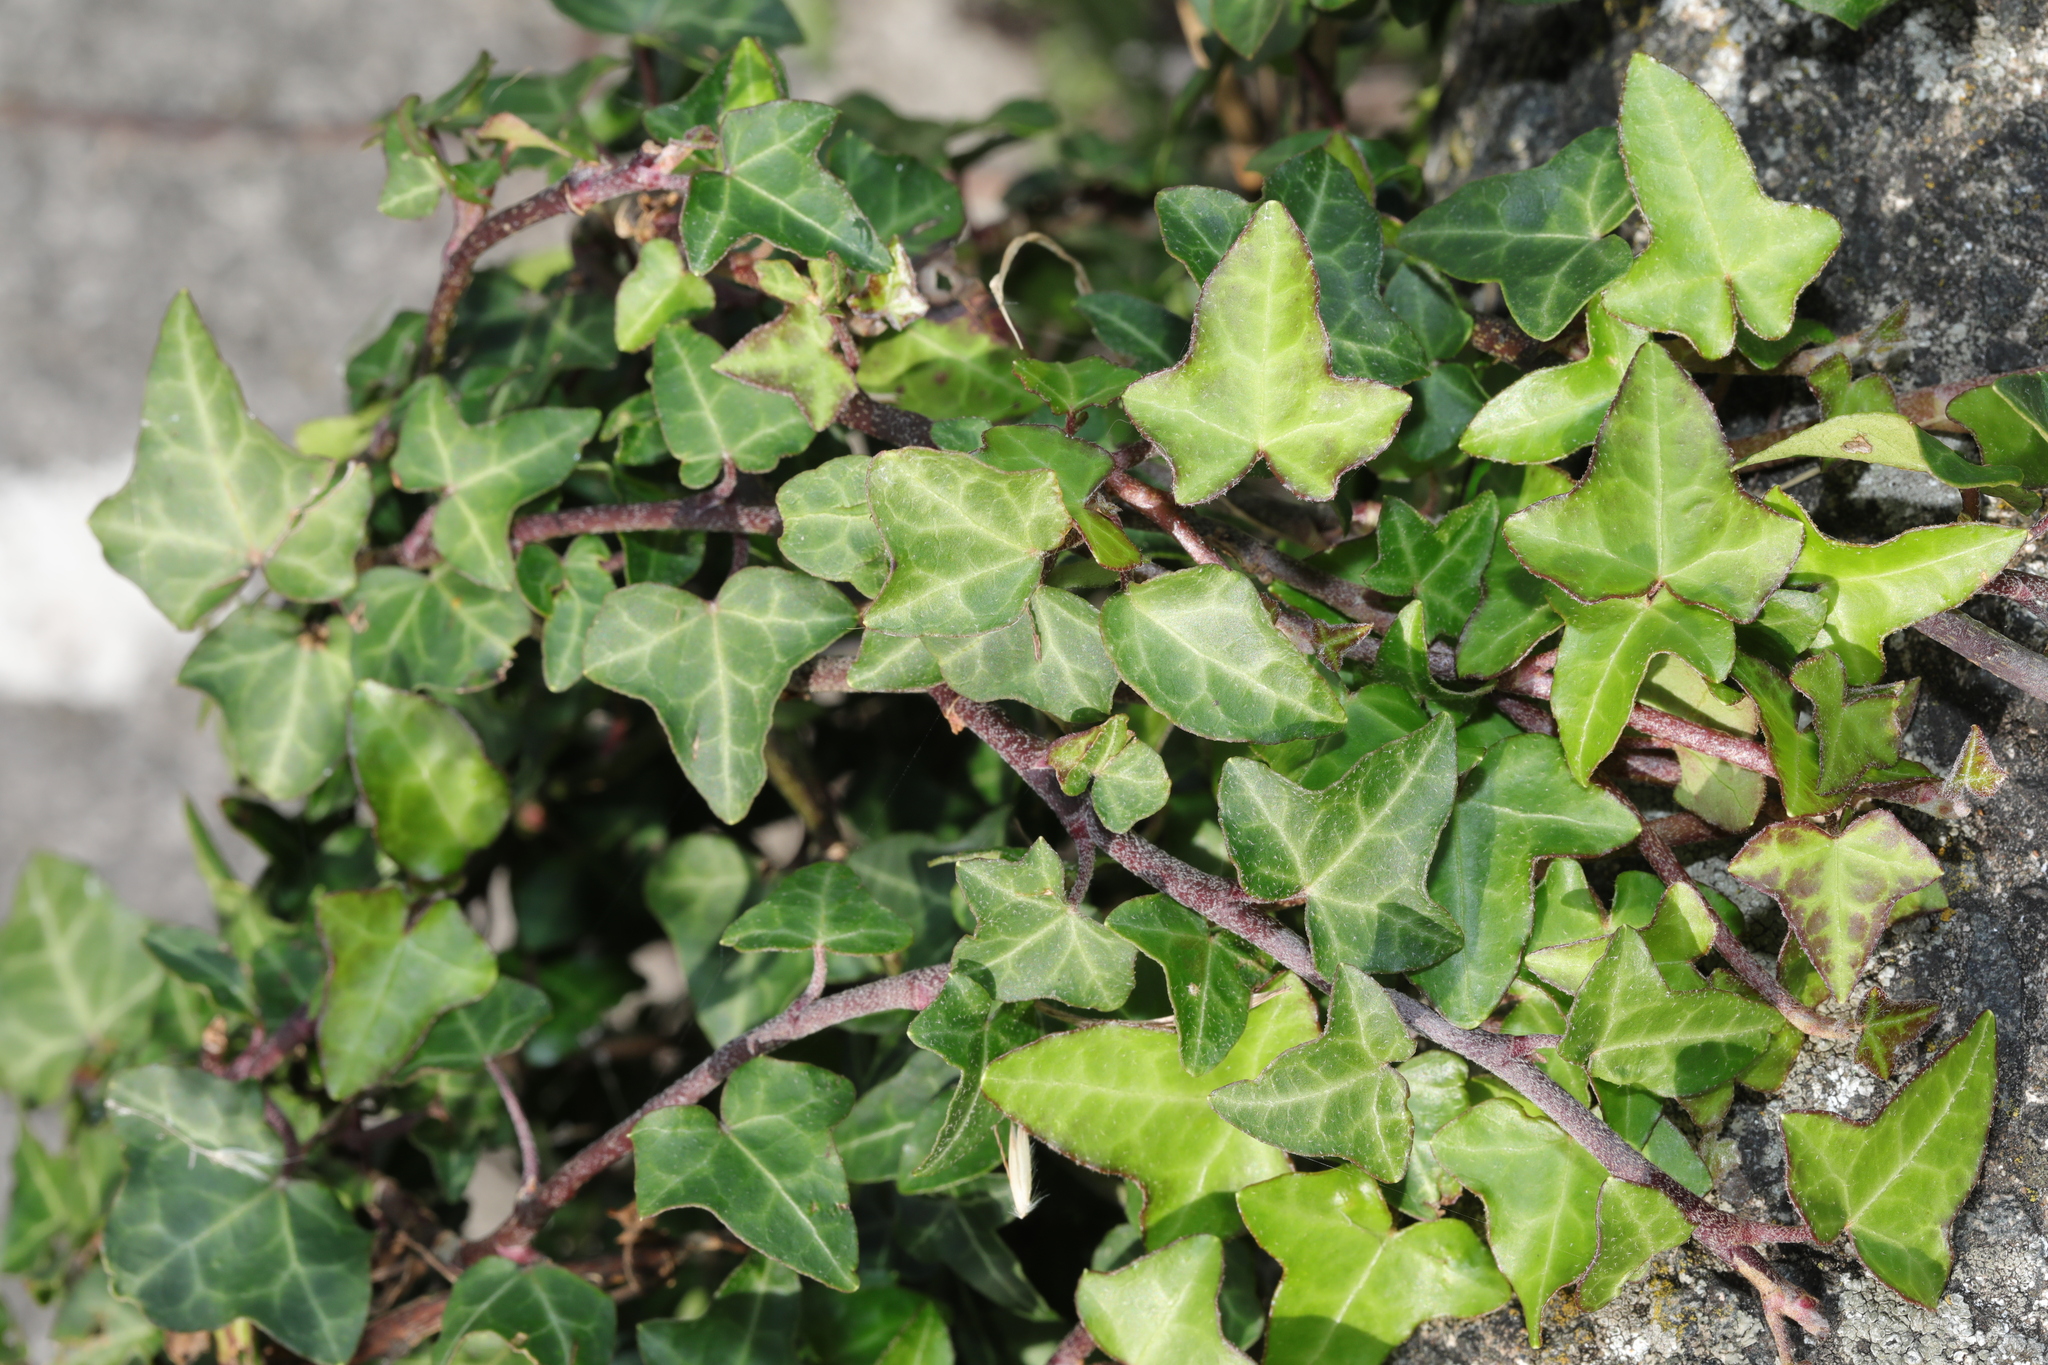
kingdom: Plantae
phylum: Tracheophyta
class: Magnoliopsida
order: Apiales
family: Araliaceae
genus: Hedera
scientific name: Hedera helix
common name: Ivy
